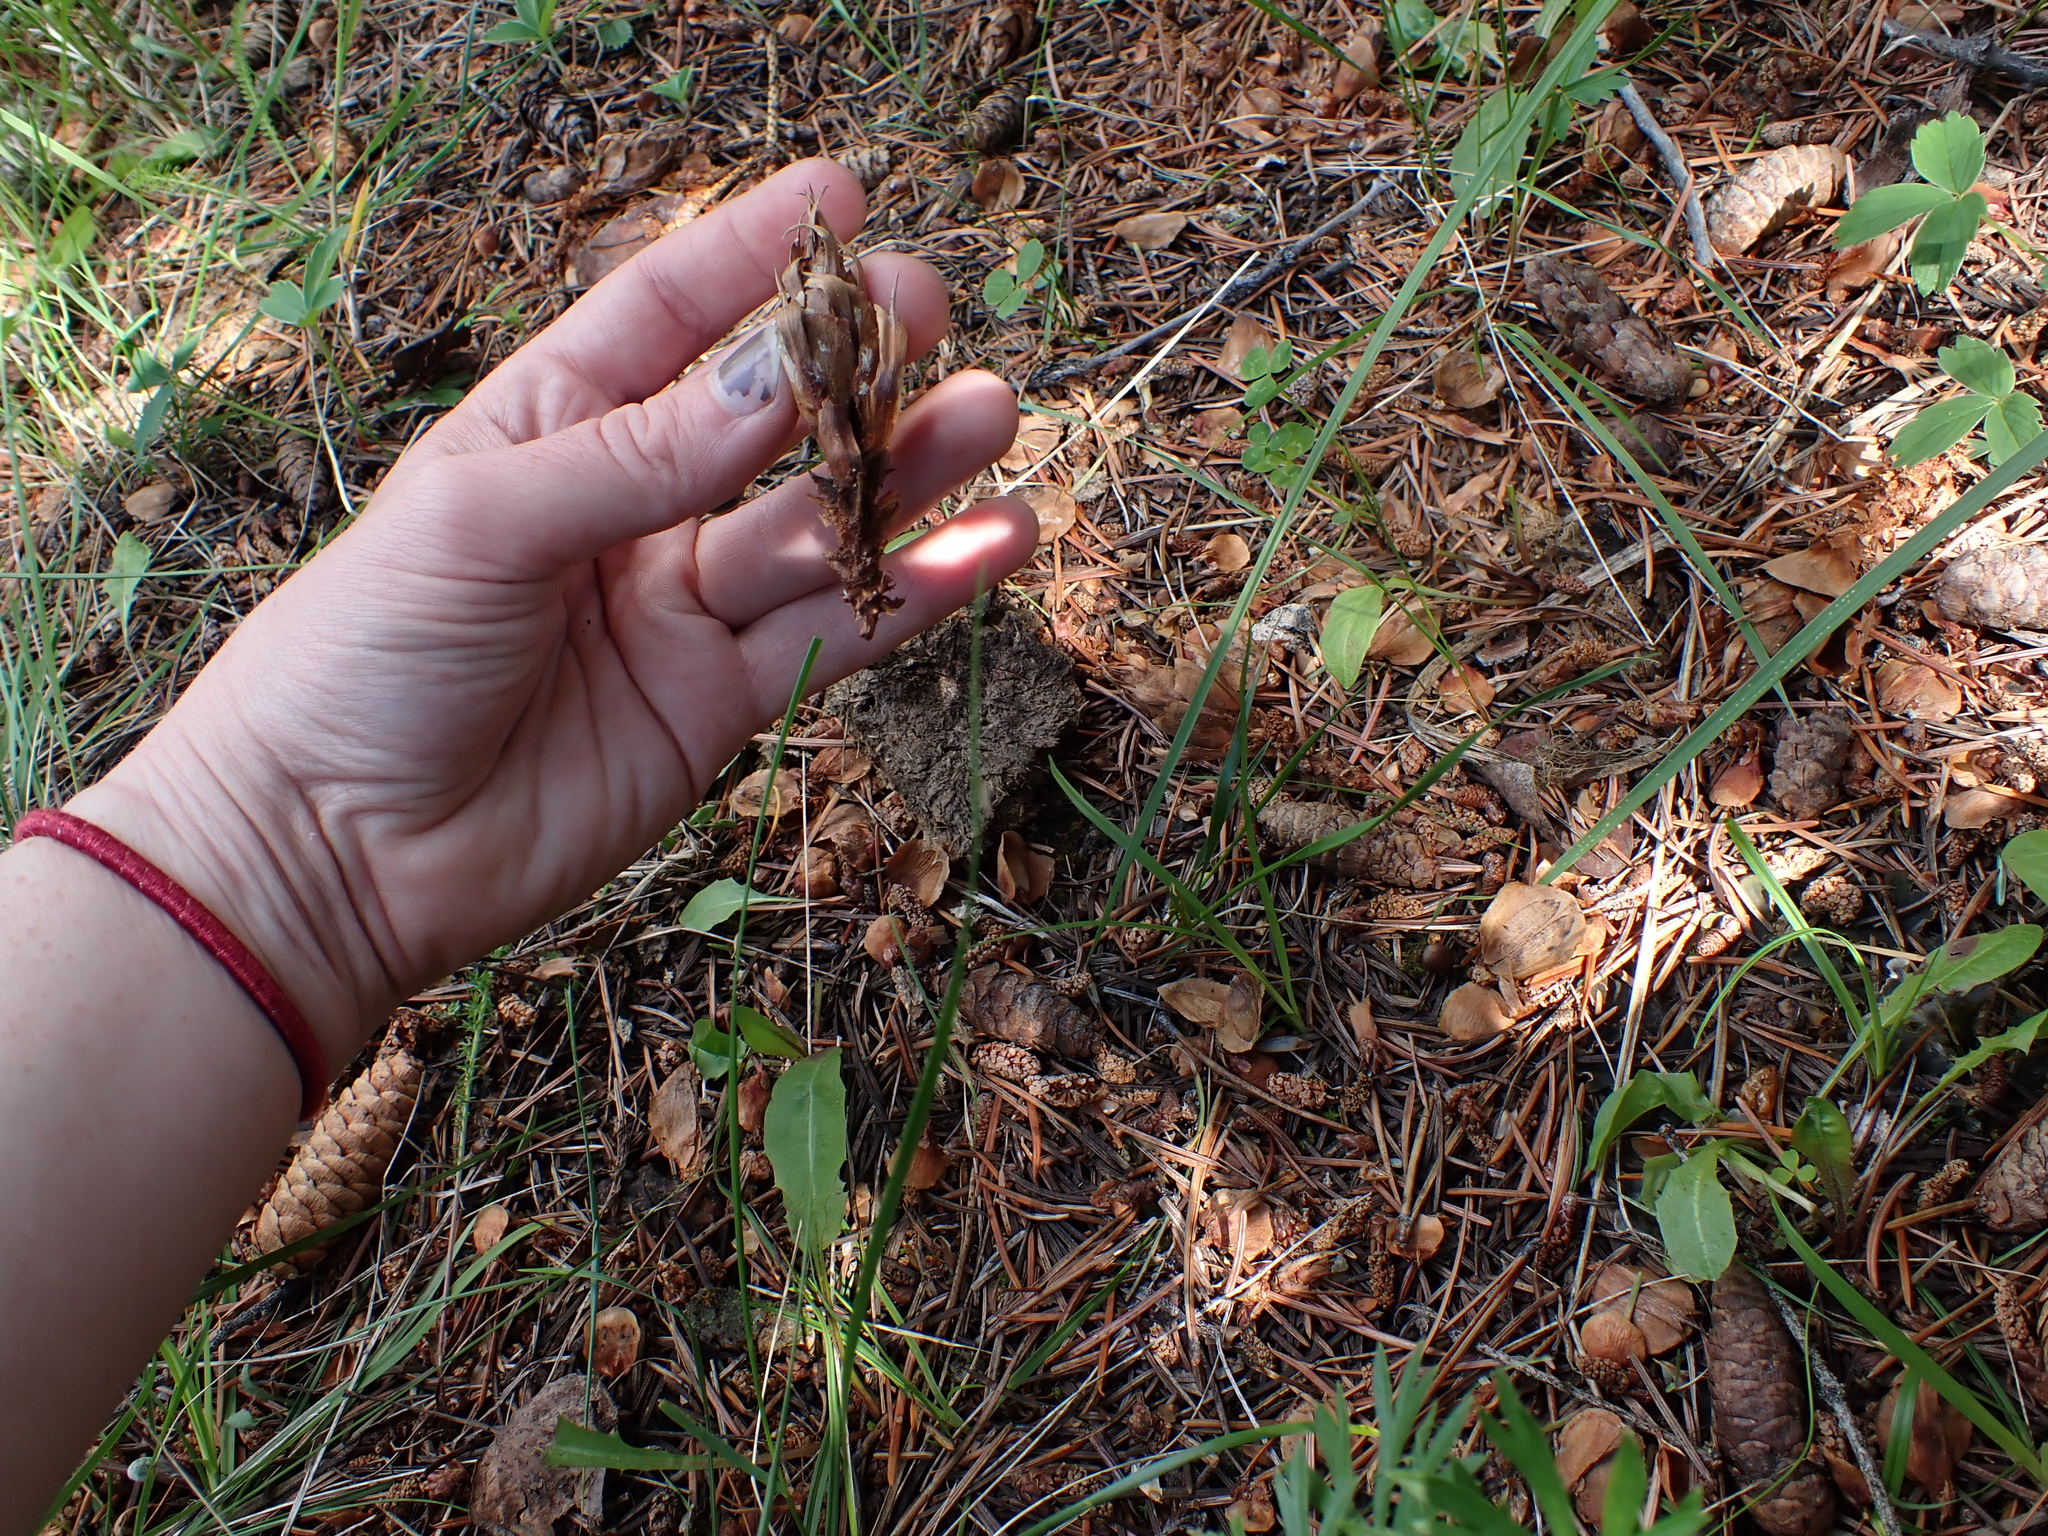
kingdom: Animalia
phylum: Chordata
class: Mammalia
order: Rodentia
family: Sciuridae
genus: Tamiasciurus
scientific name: Tamiasciurus hudsonicus
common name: Red squirrel
